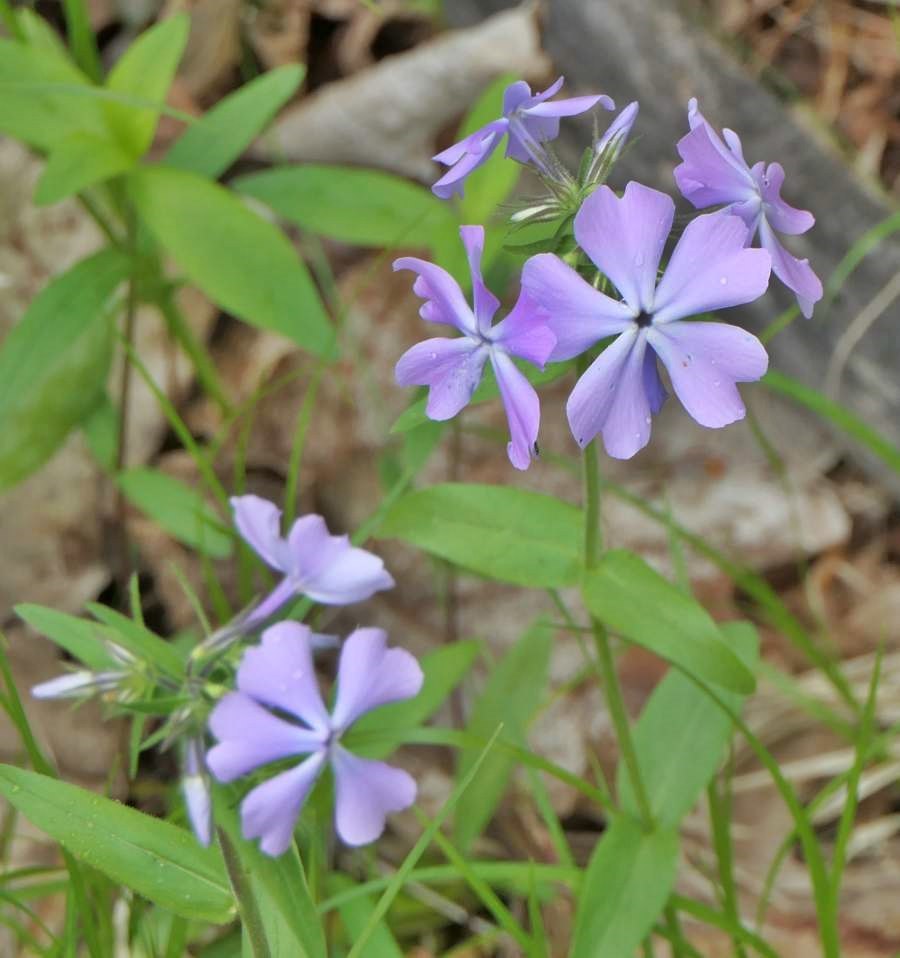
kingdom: Plantae
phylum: Tracheophyta
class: Magnoliopsida
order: Ericales
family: Polemoniaceae
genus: Phlox
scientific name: Phlox divaricata
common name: Blue phlox
